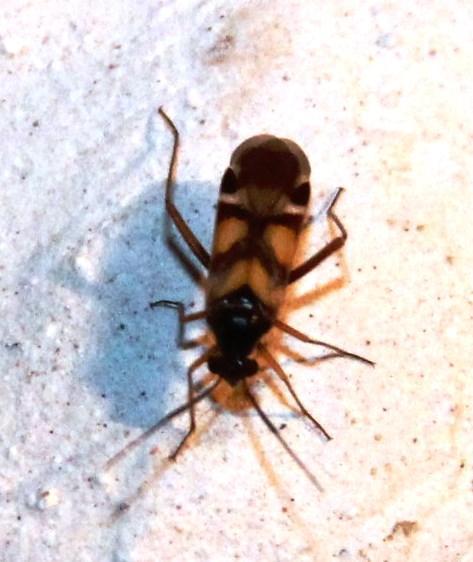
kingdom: Animalia
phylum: Arthropoda
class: Insecta
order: Hemiptera
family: Miridae
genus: Karoocapsus
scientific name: Karoocapsus pulchrus
